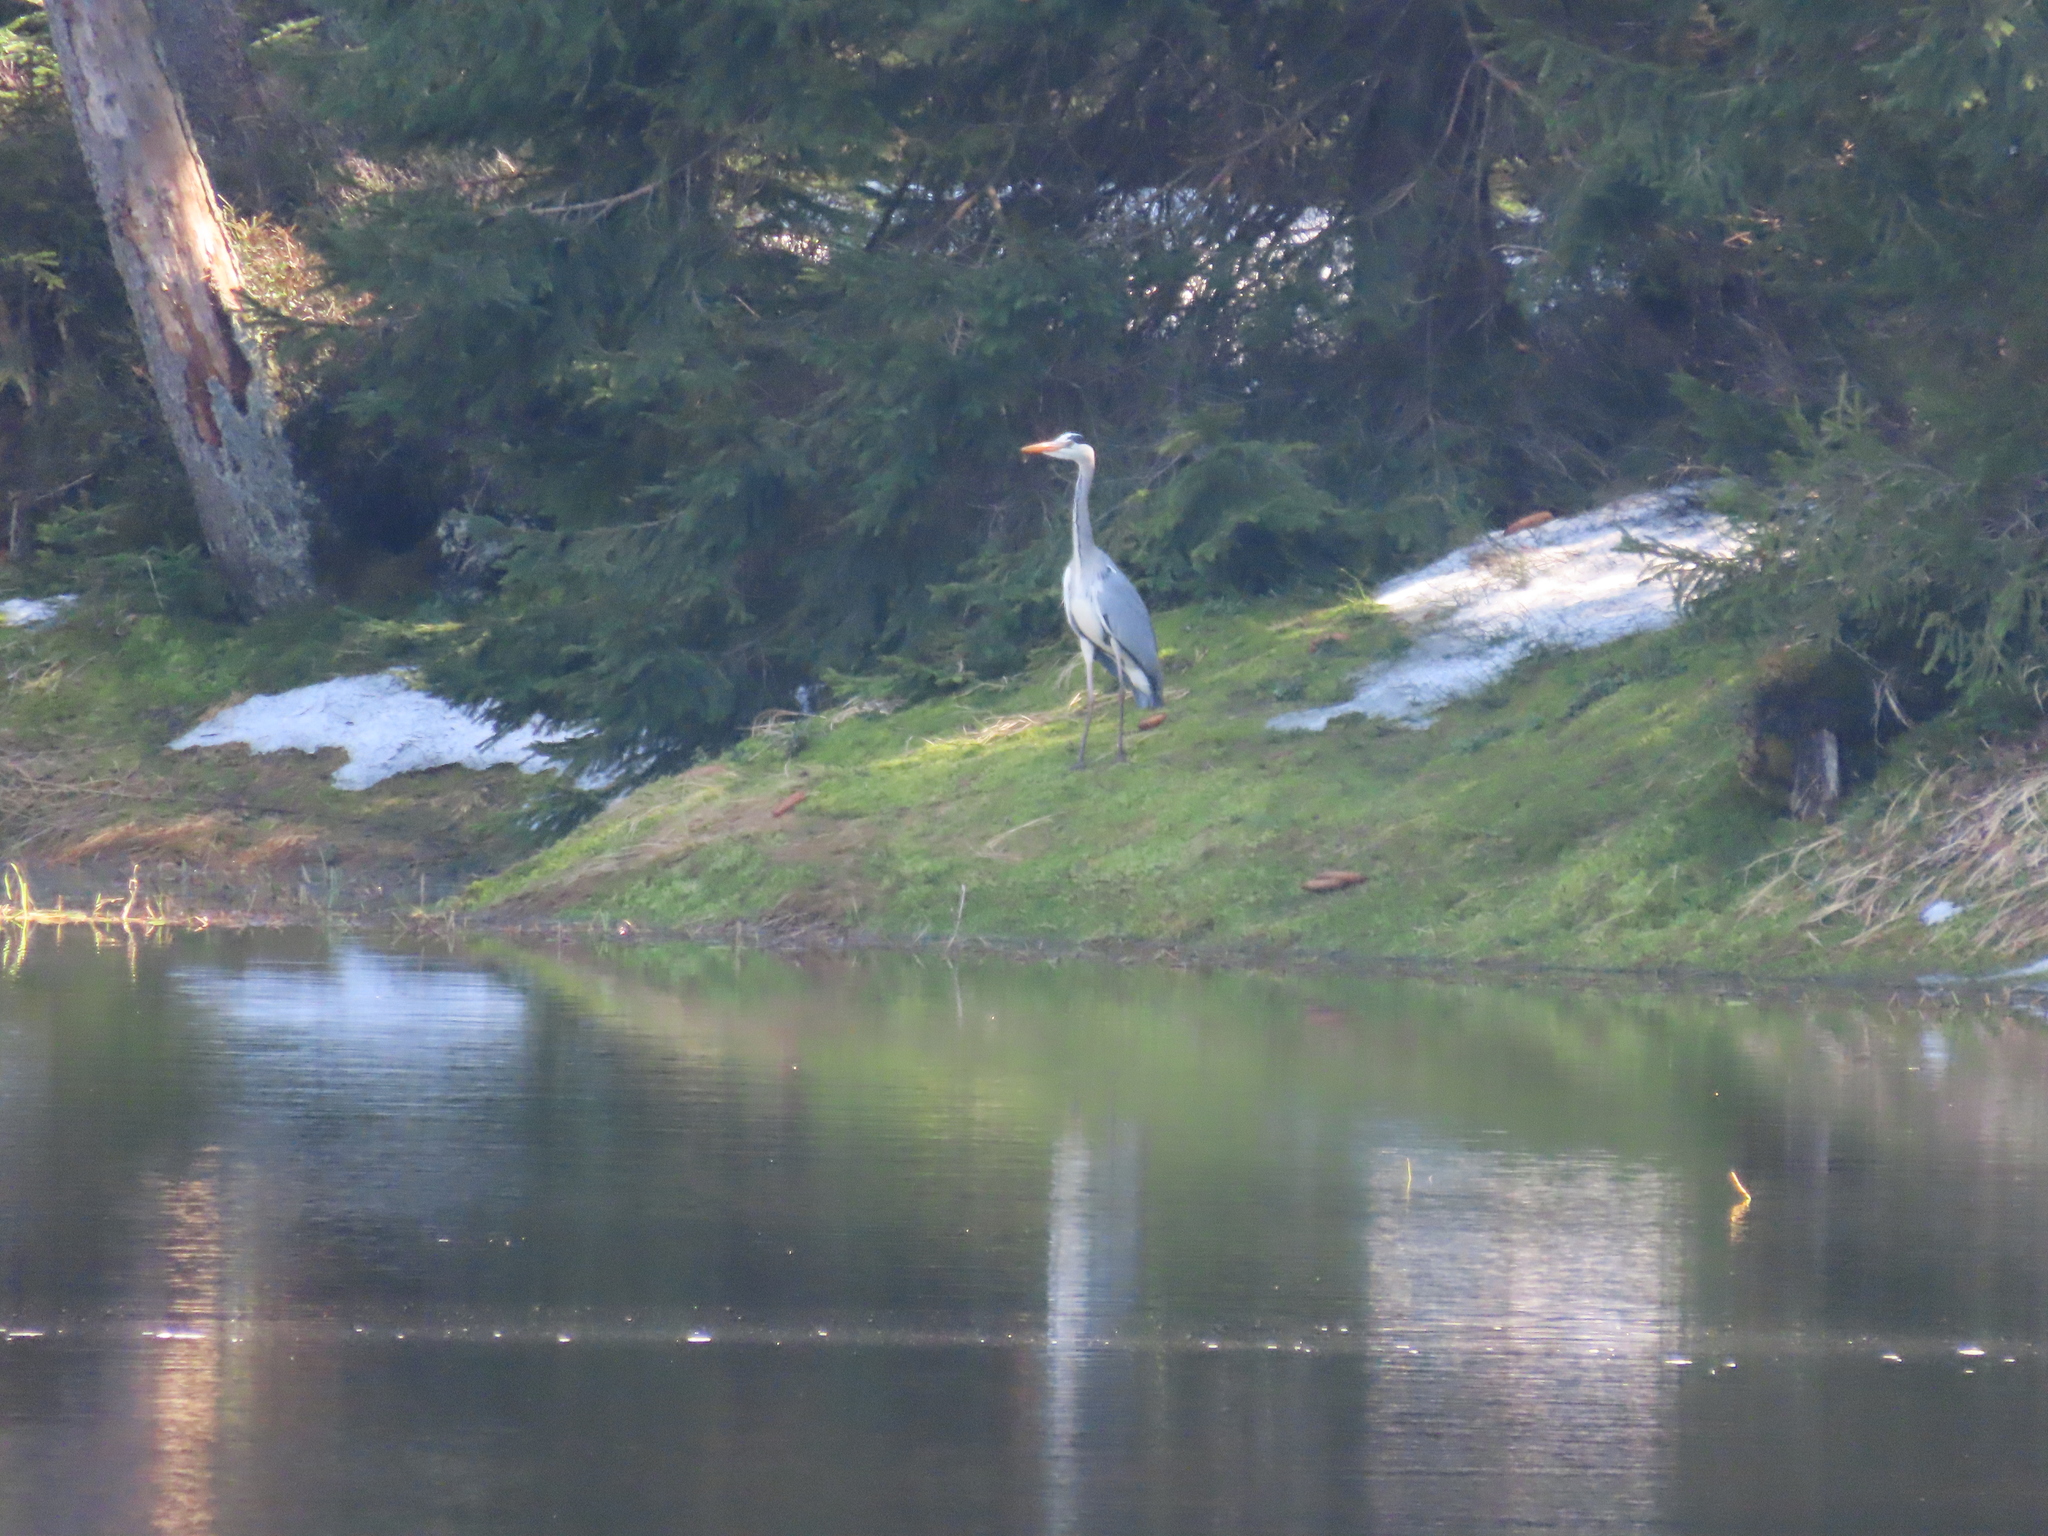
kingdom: Animalia
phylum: Chordata
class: Aves
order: Pelecaniformes
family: Ardeidae
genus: Ardea
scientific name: Ardea cinerea
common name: Grey heron
